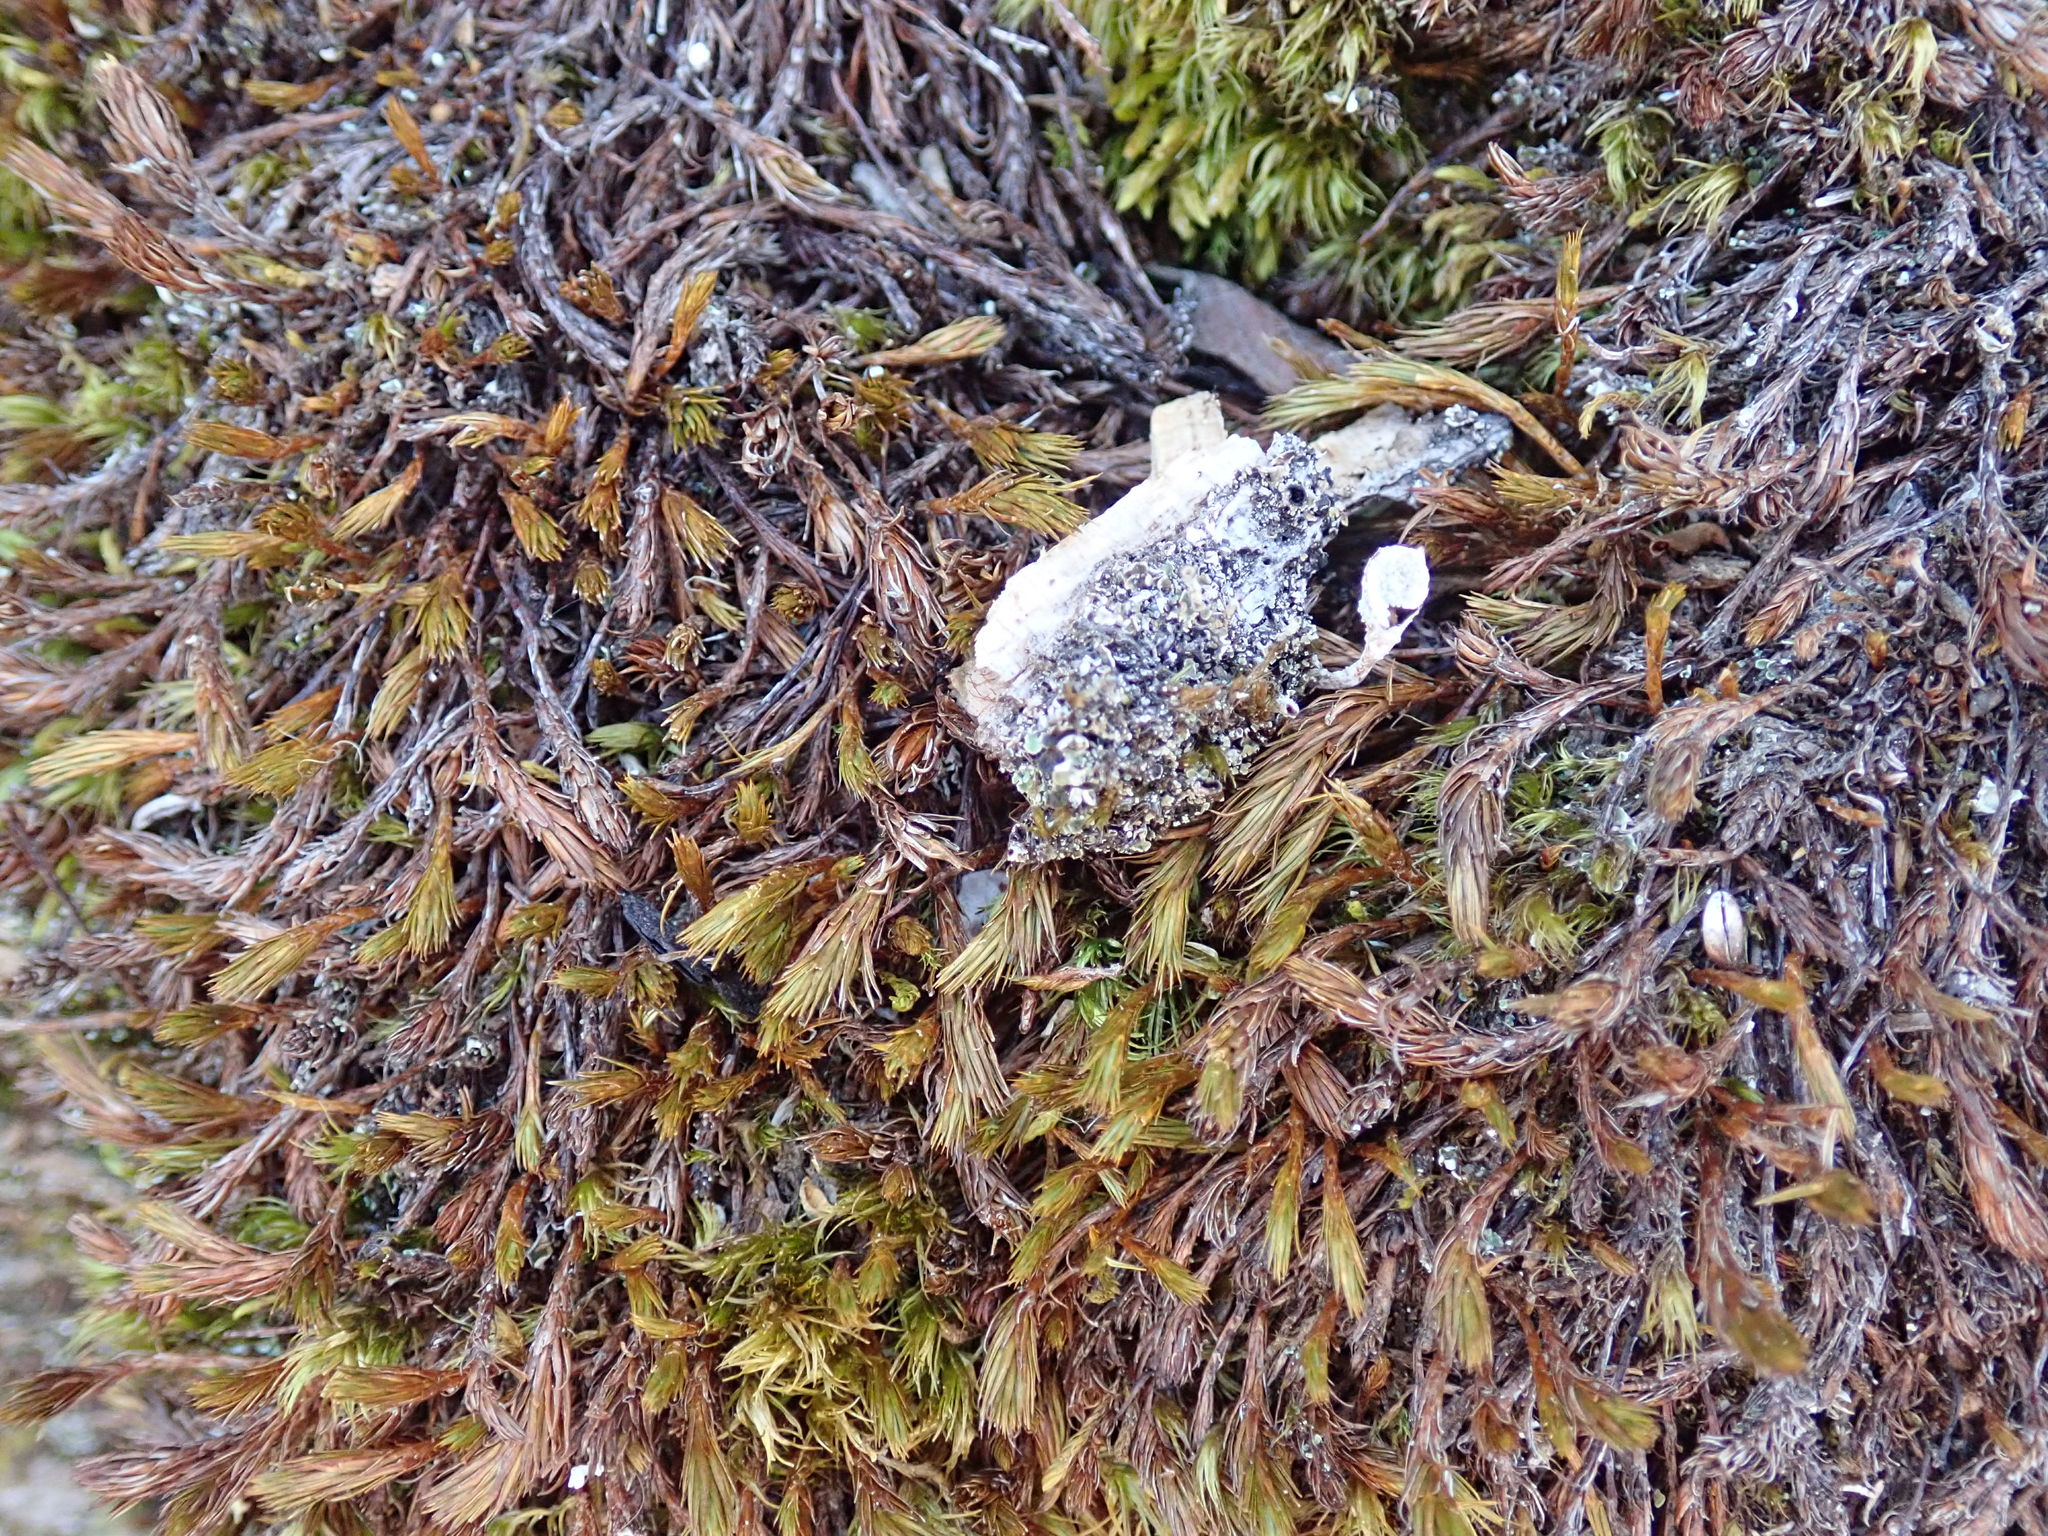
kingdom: Plantae
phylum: Bryophyta
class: Polytrichopsida
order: Polytrichales
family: Polytrichaceae
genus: Polytrichum
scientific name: Polytrichum juniperinum
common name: Juniper haircap moss
